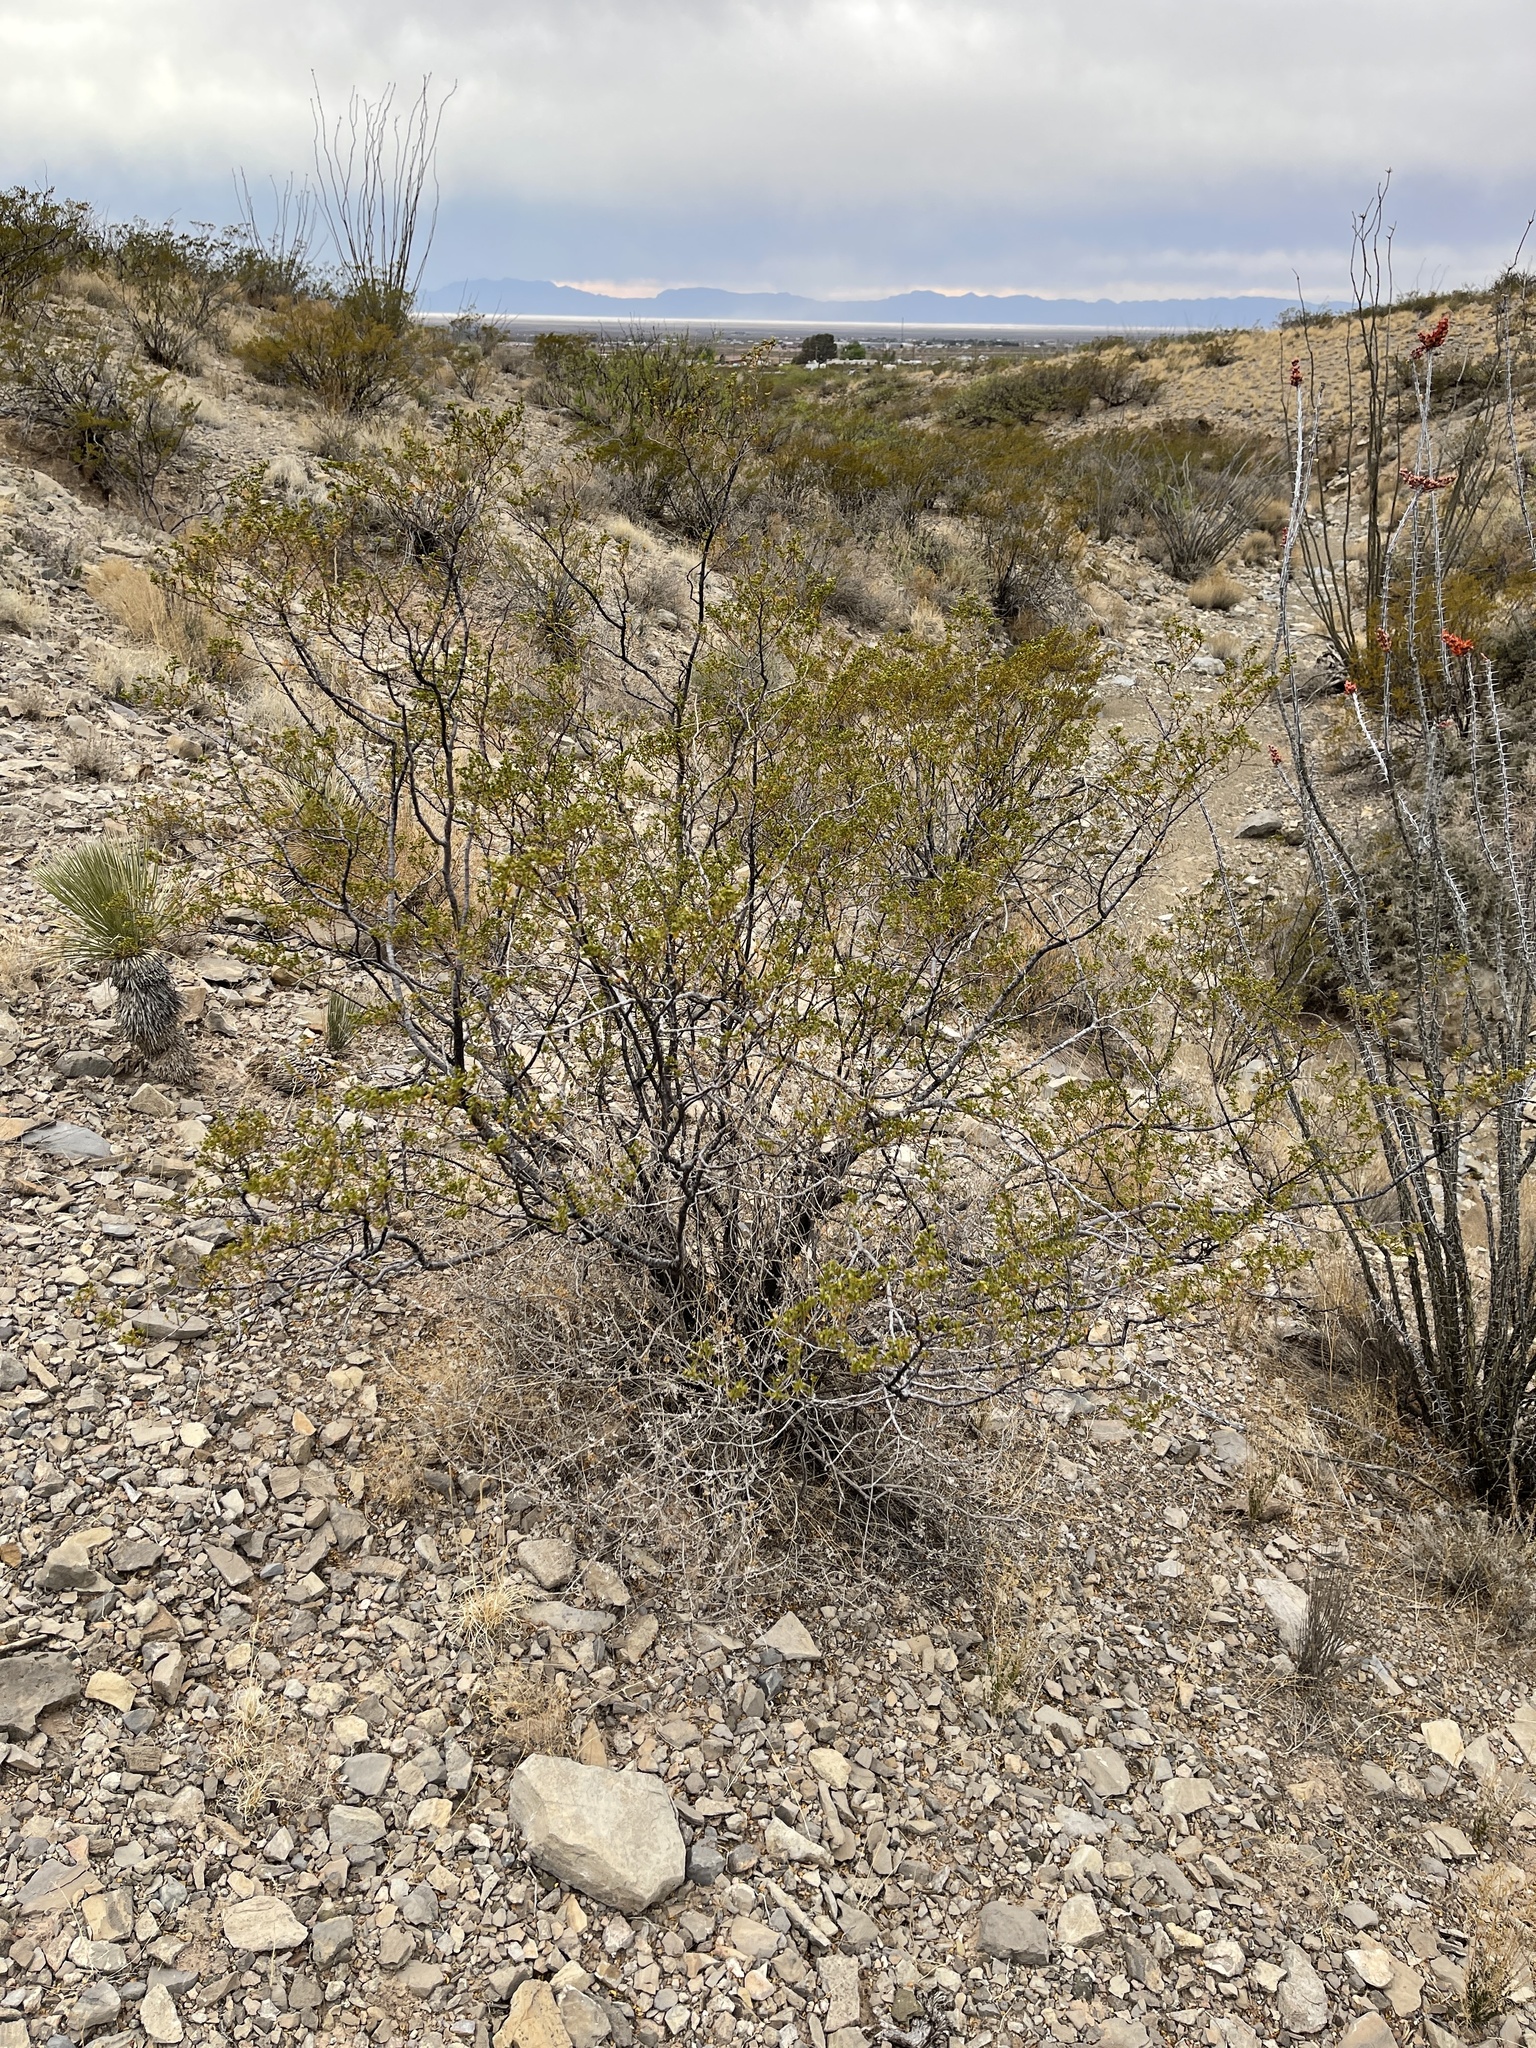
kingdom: Plantae
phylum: Tracheophyta
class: Magnoliopsida
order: Zygophyllales
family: Zygophyllaceae
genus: Larrea
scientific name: Larrea tridentata
